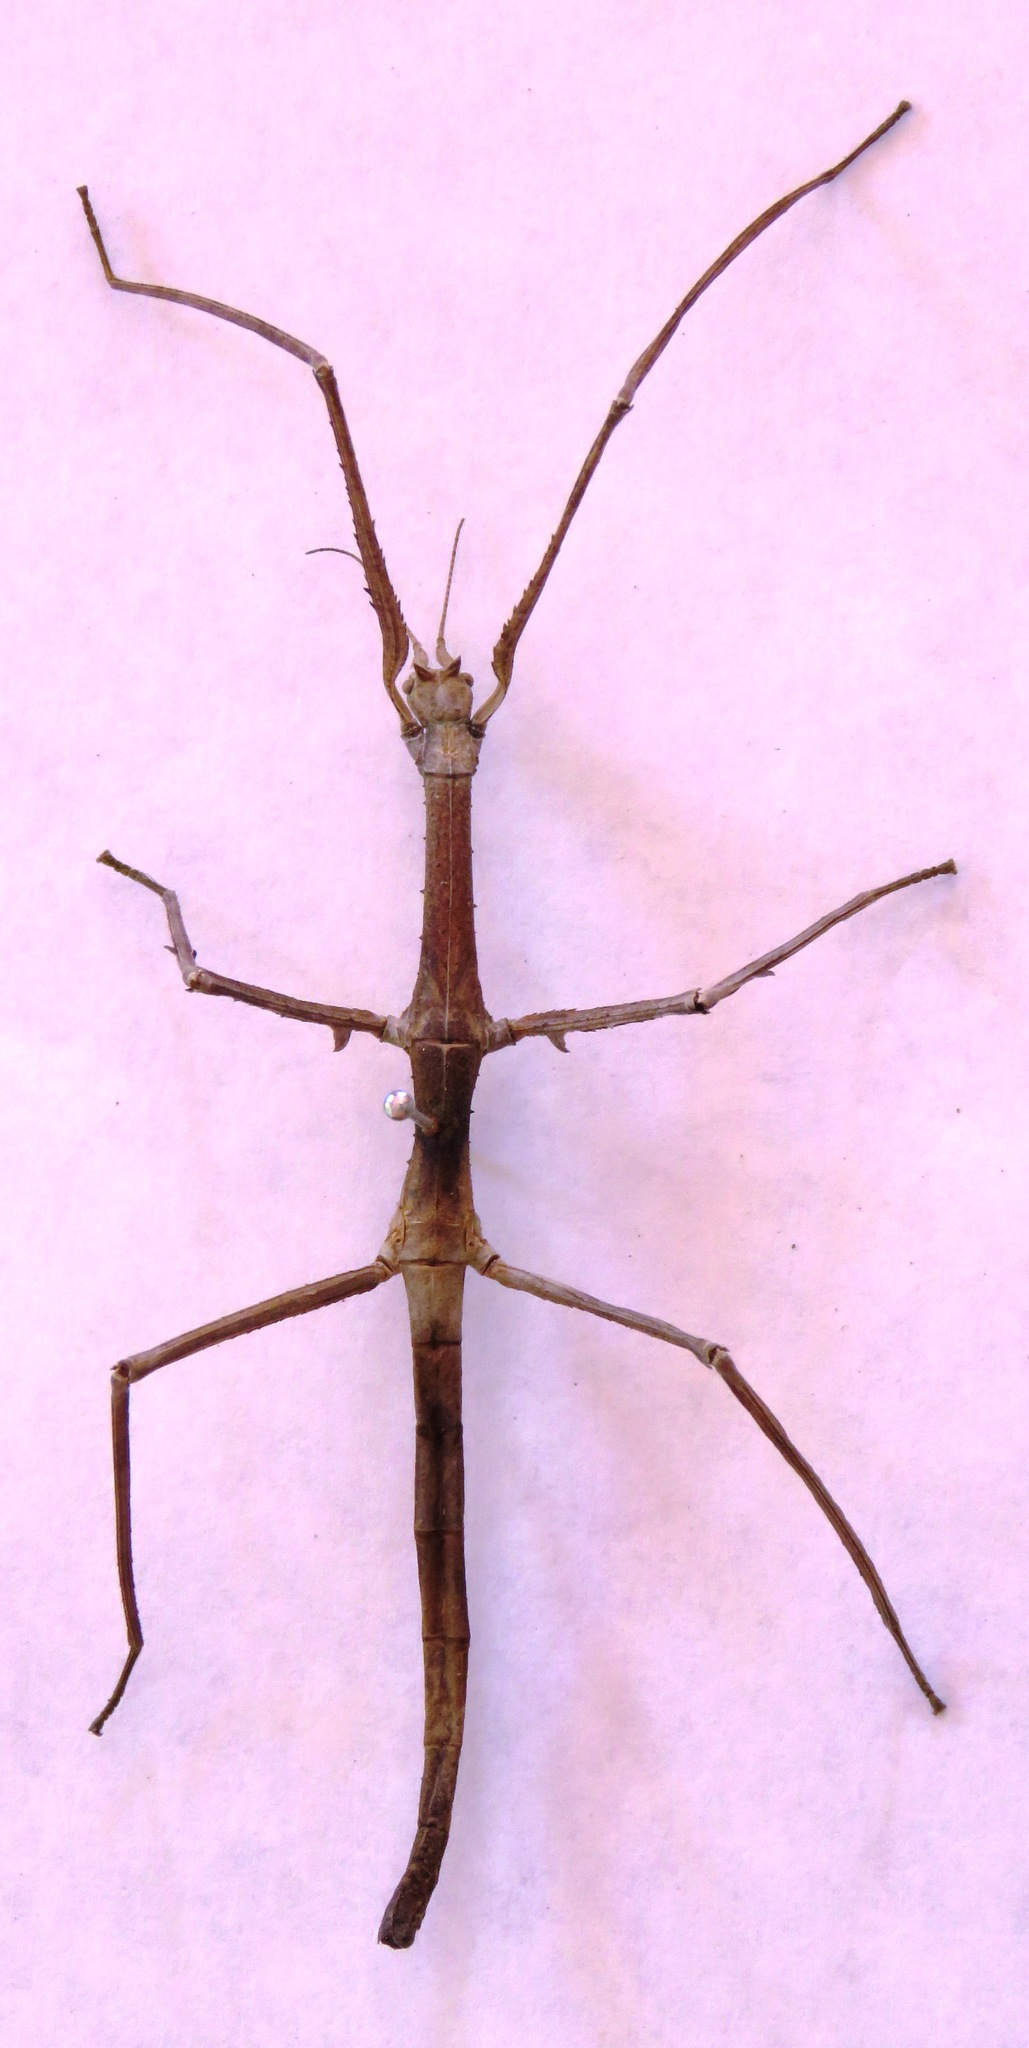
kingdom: Animalia
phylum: Arthropoda
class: Insecta
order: Phasmida
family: Phasmatidae
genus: Medauroidea
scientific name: Medauroidea extradentata
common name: Annam stick insect
